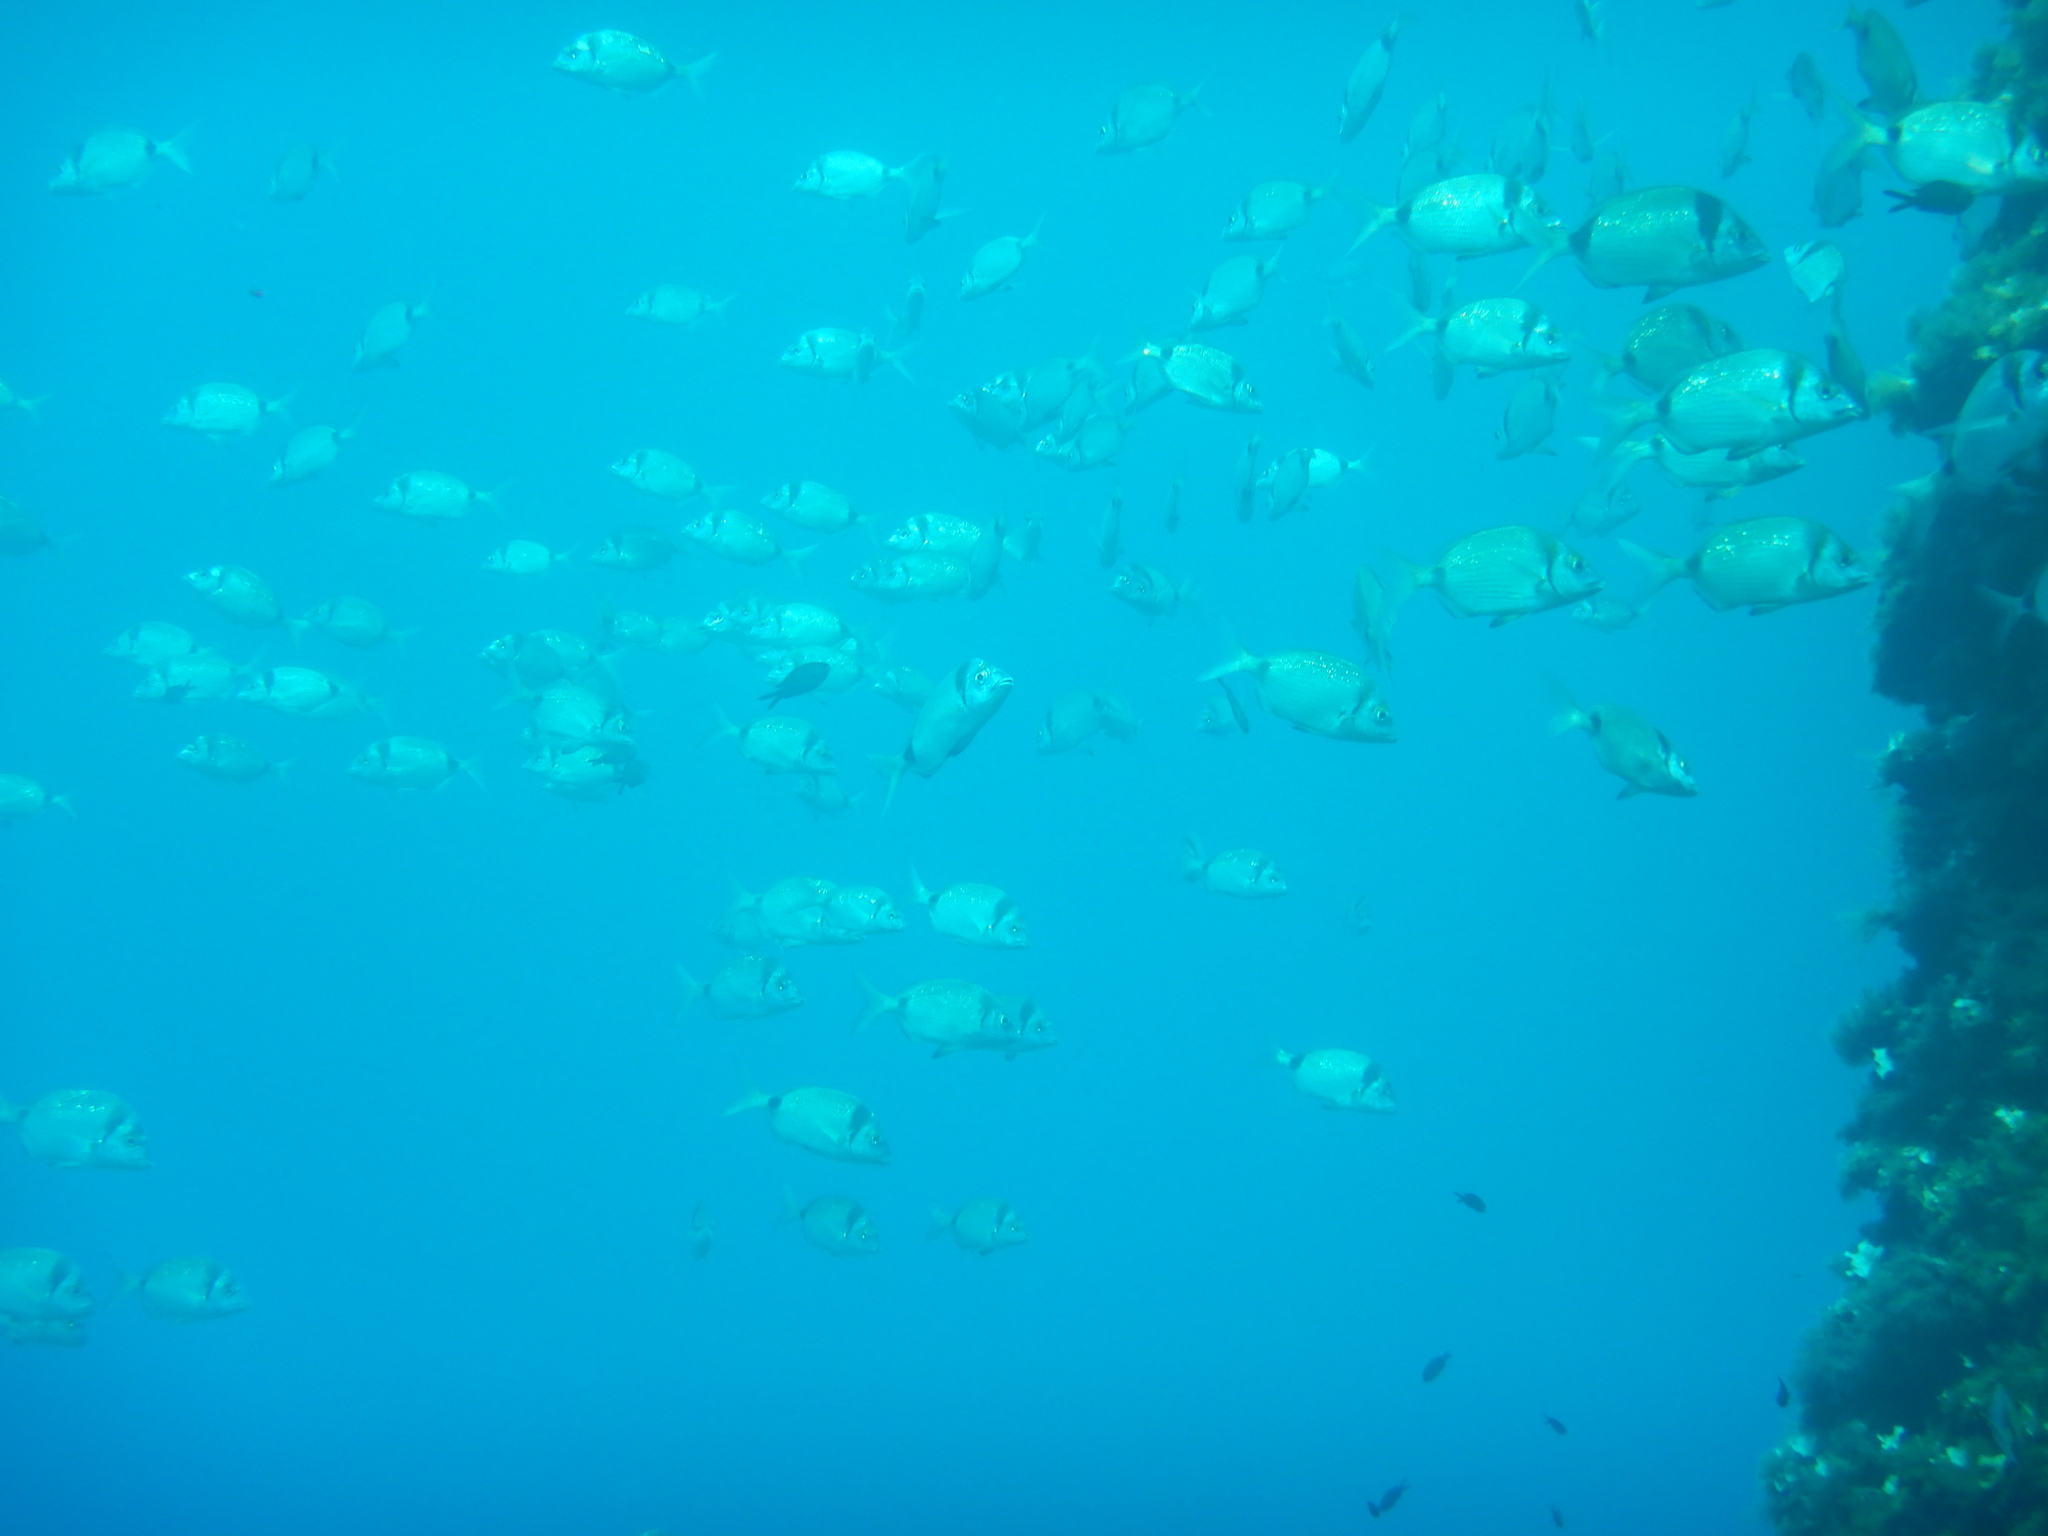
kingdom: Animalia
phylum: Chordata
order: Perciformes
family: Sparidae
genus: Diplodus
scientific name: Diplodus vulgaris
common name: Common two-banded seabream
